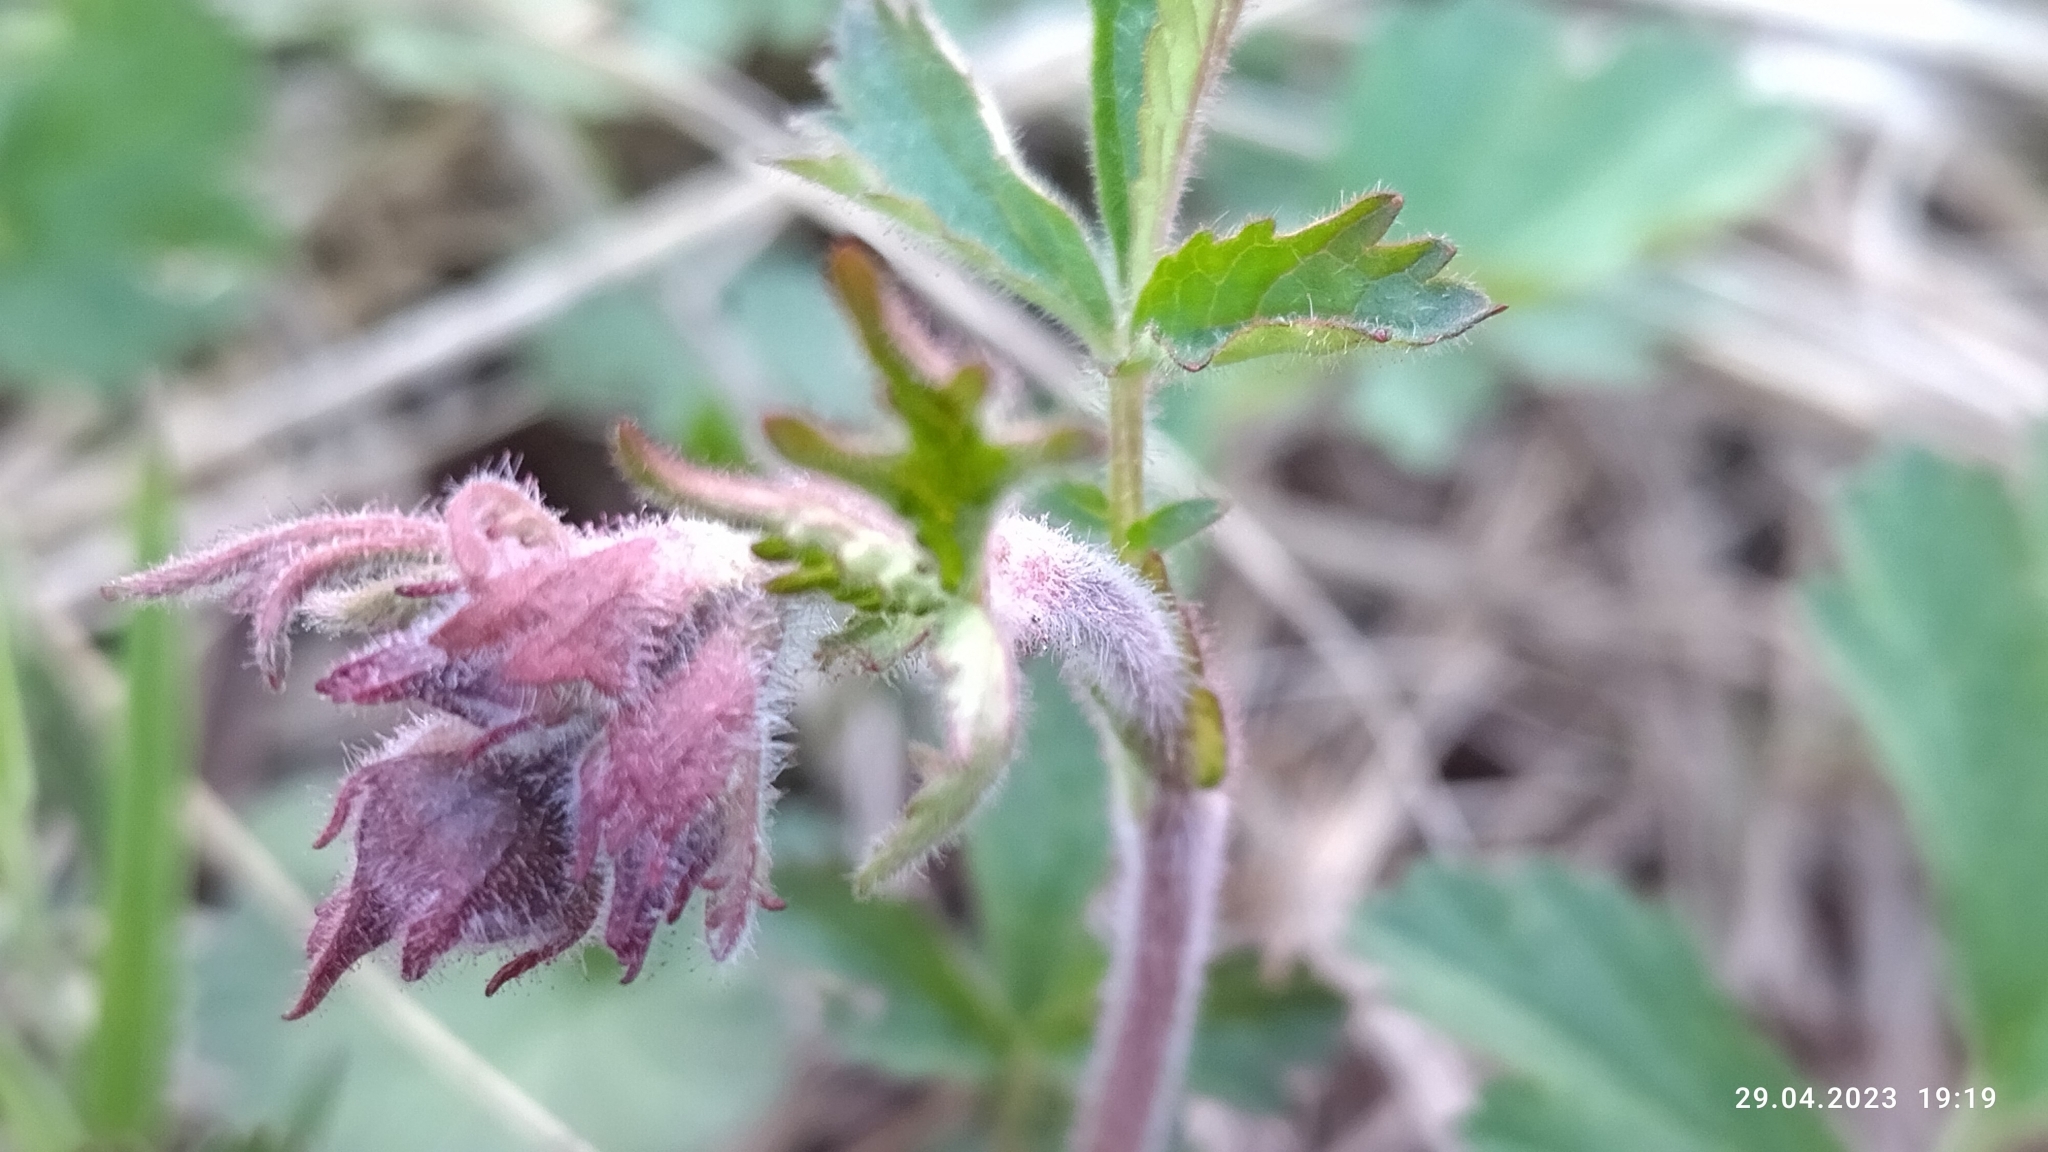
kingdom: Plantae
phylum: Tracheophyta
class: Magnoliopsida
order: Rosales
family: Rosaceae
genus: Geum
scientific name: Geum rivale
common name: Water avens
